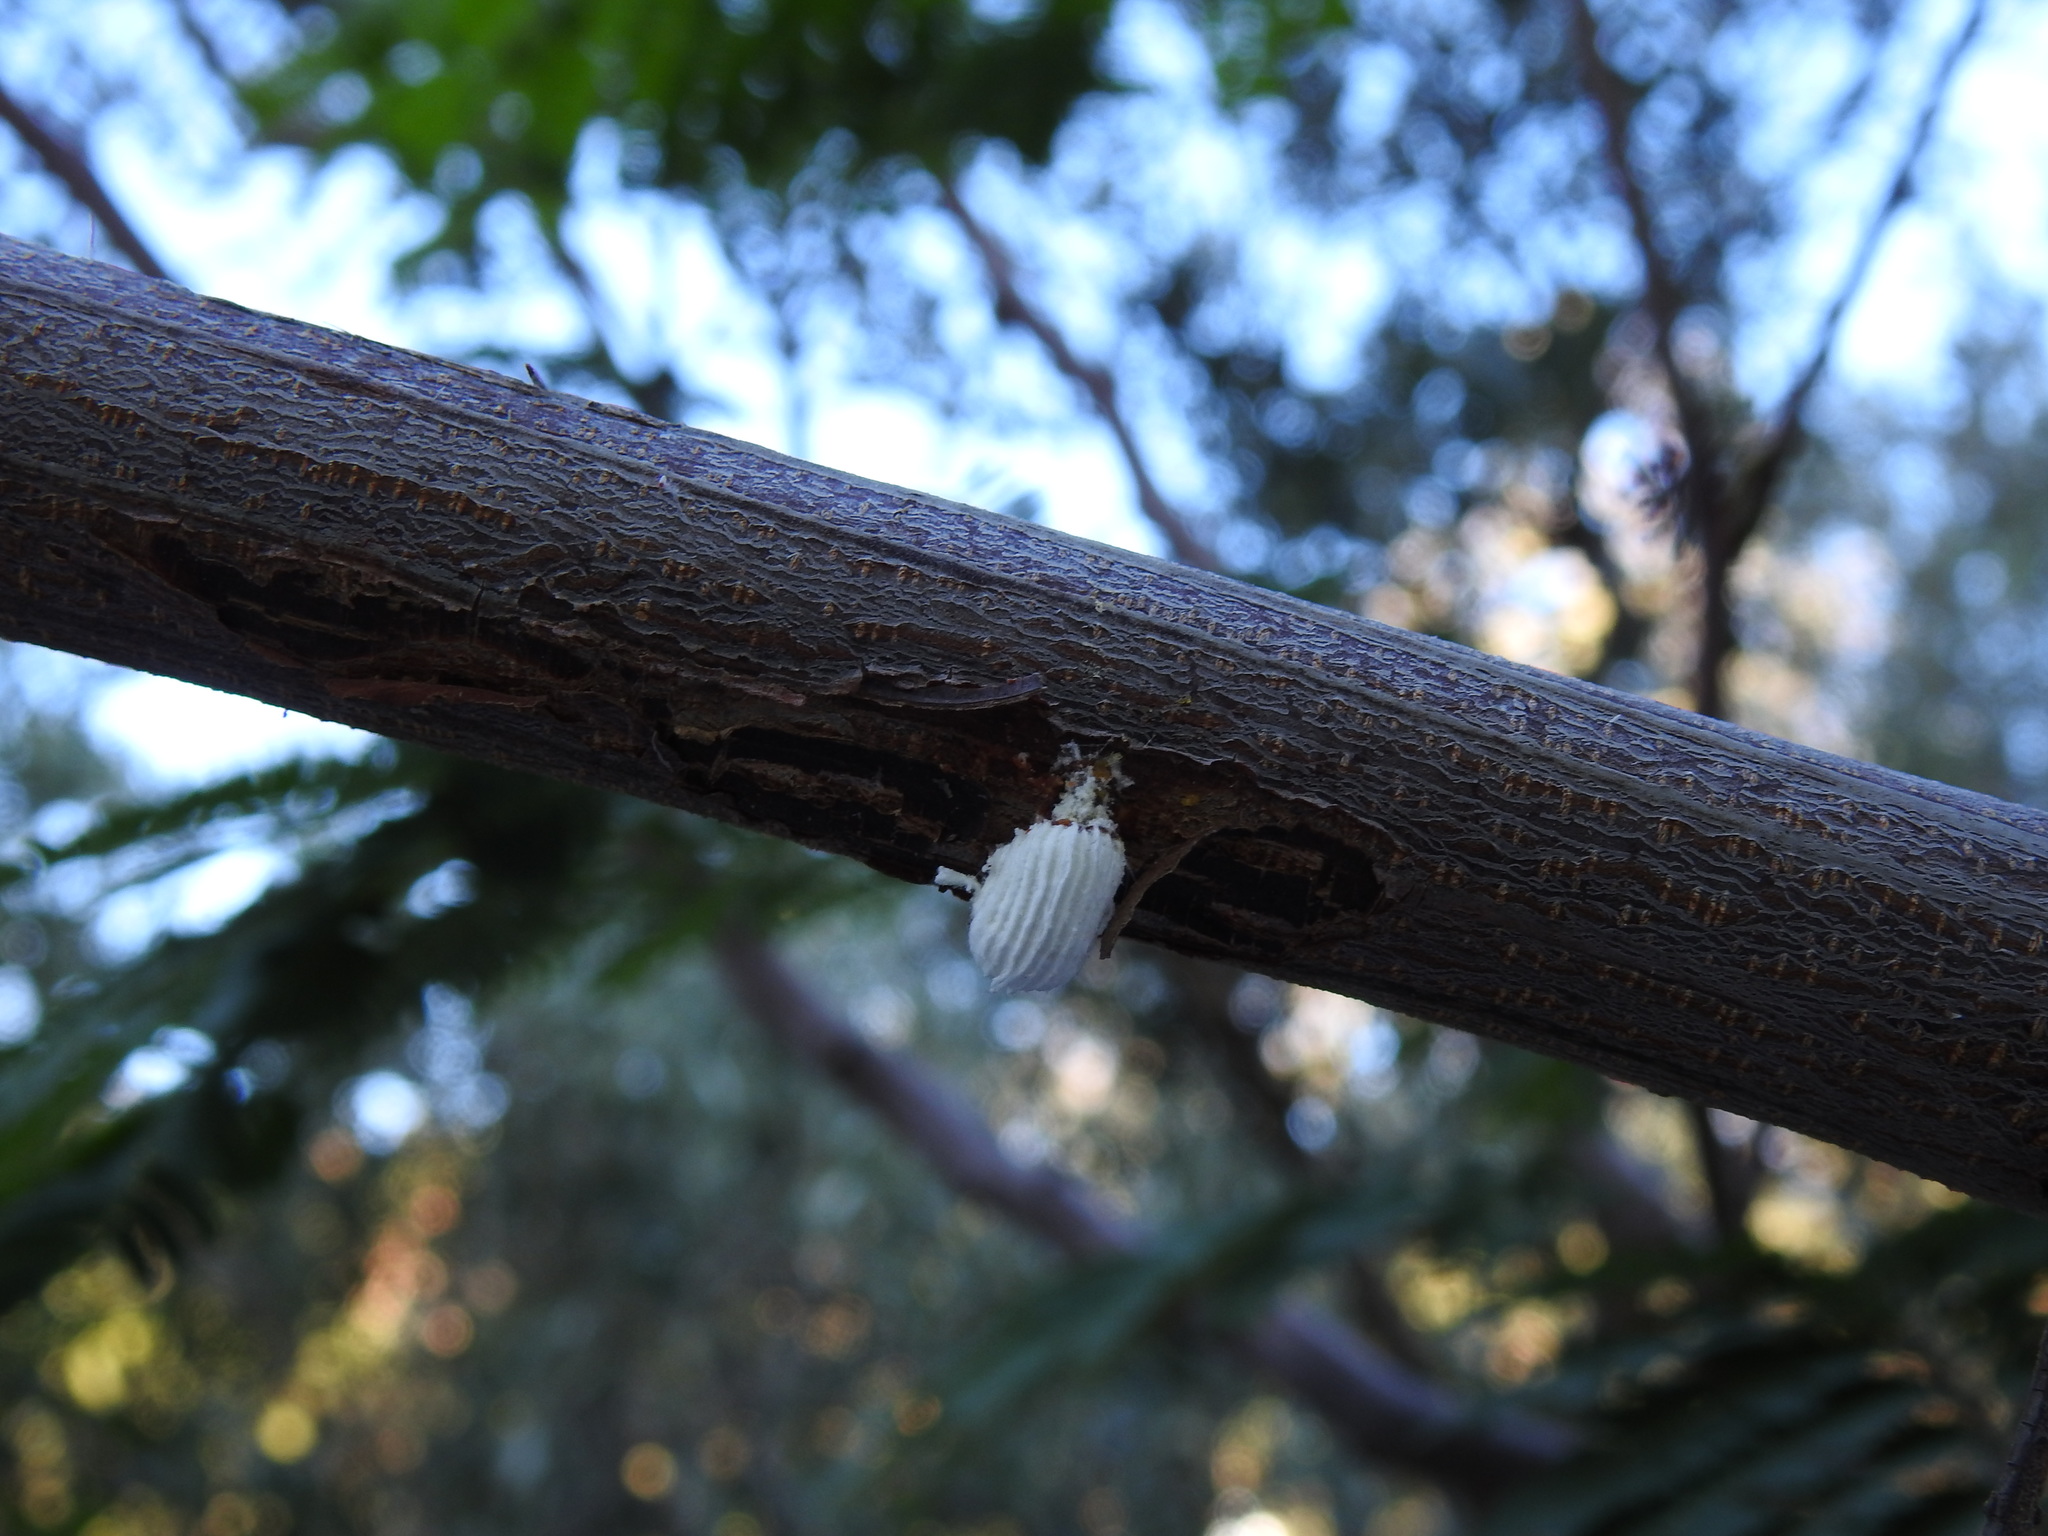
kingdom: Animalia
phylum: Arthropoda
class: Insecta
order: Hemiptera
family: Margarodidae
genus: Icerya
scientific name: Icerya purchasi
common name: Cottony cushion scale
